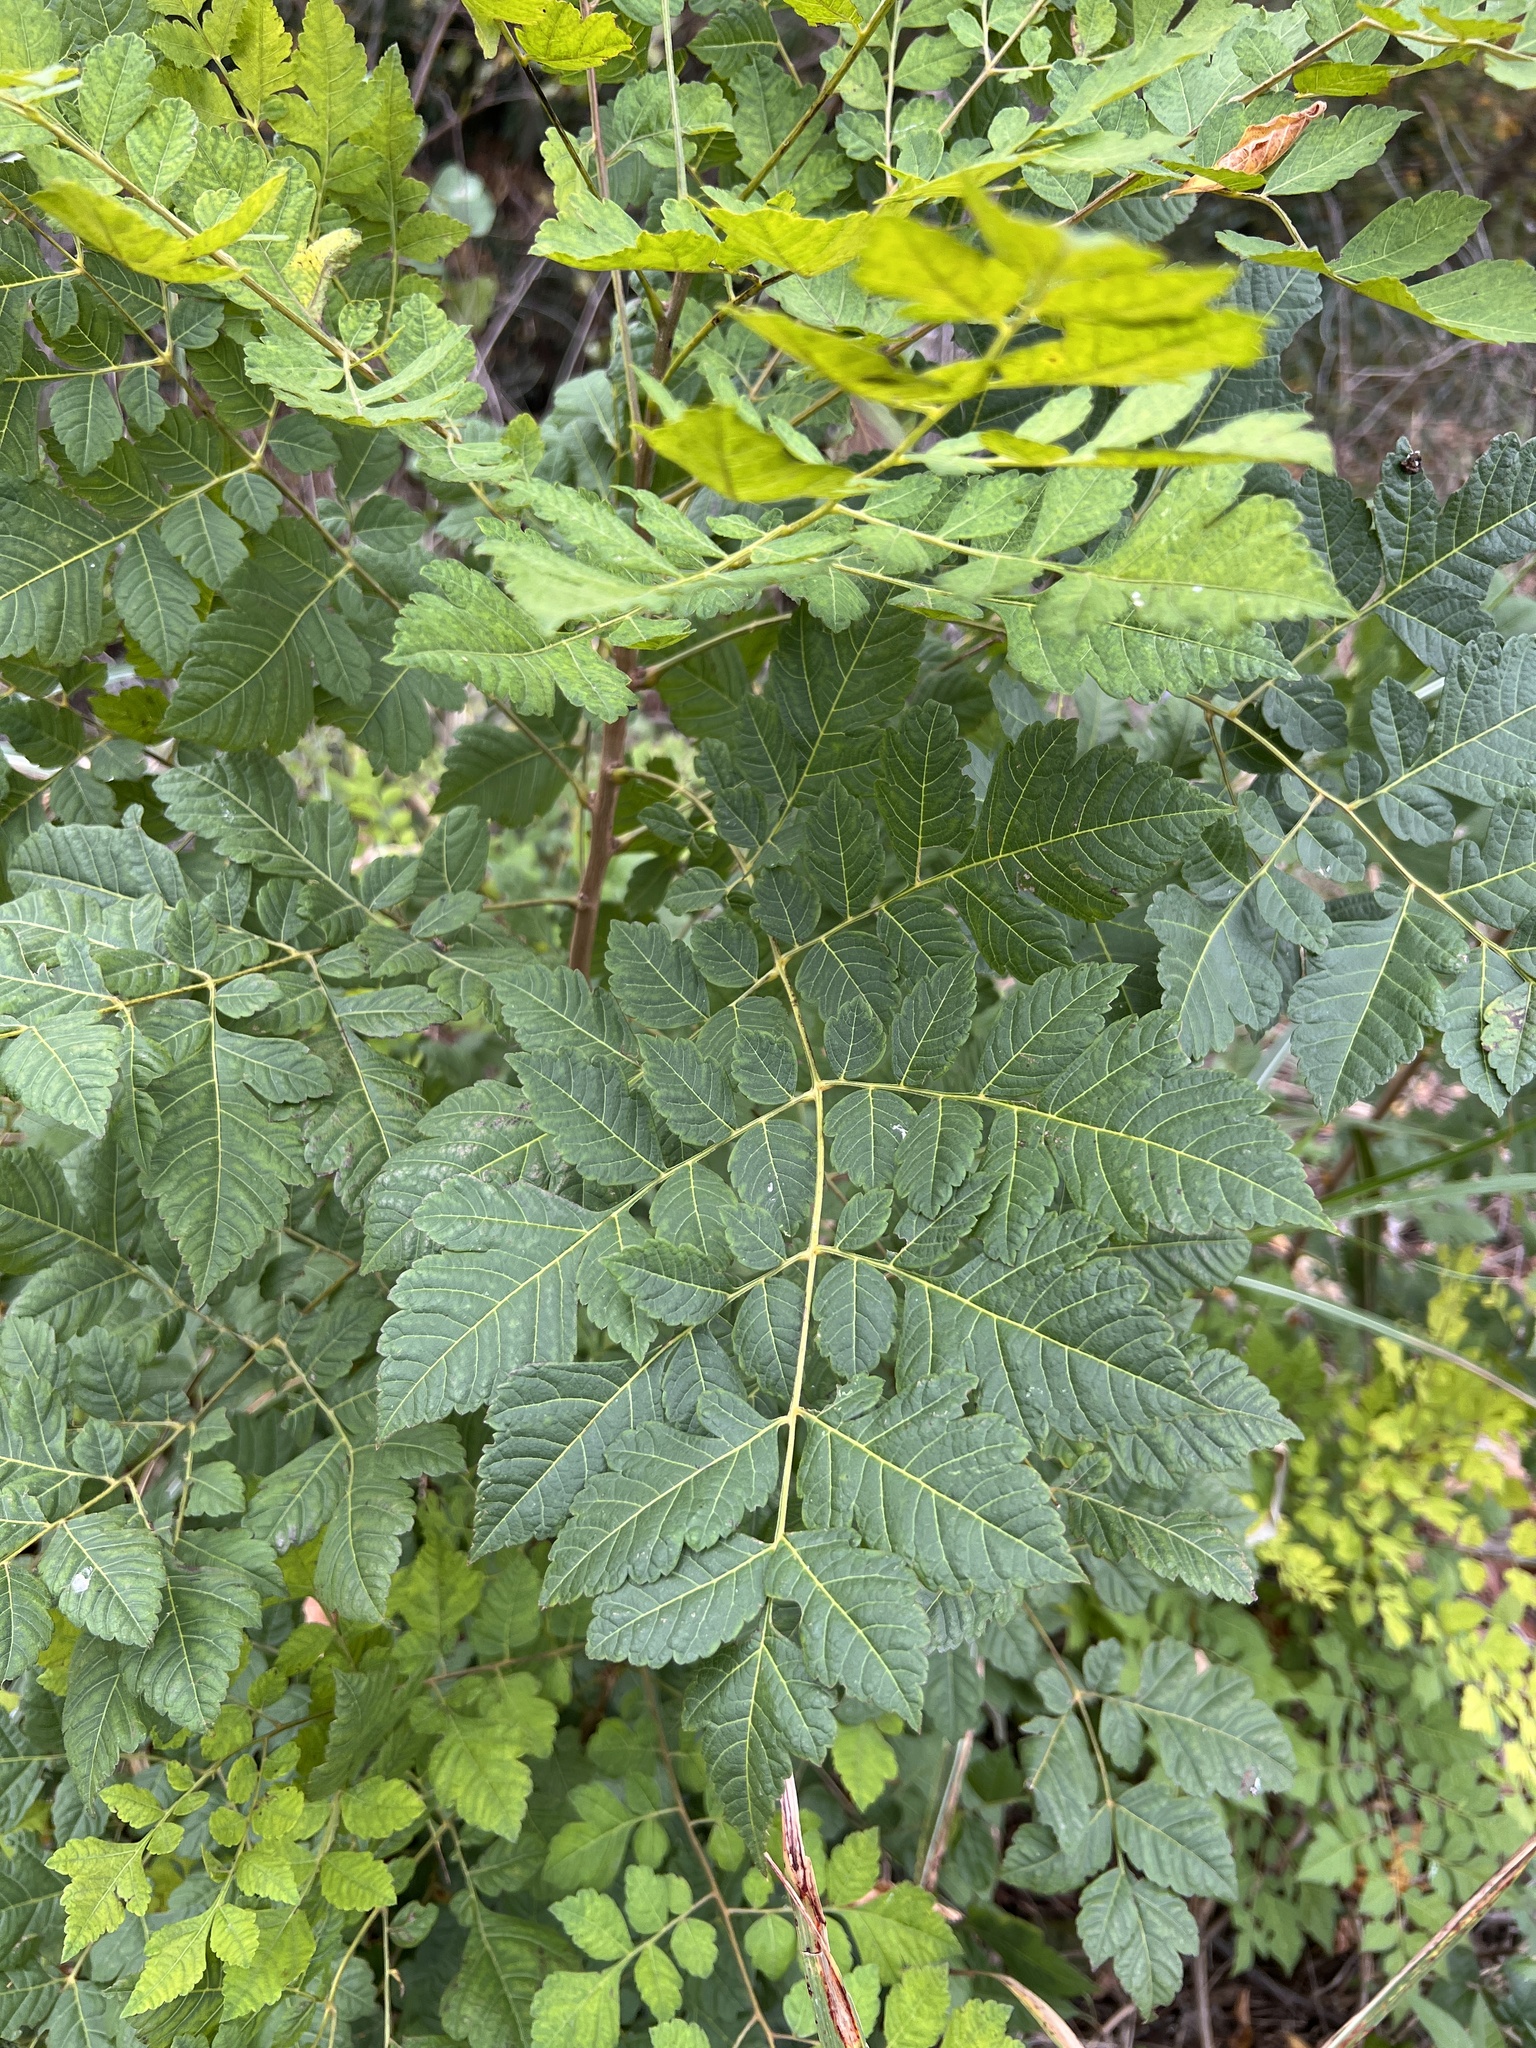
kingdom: Plantae
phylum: Tracheophyta
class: Magnoliopsida
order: Sapindales
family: Sapindaceae
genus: Koelreuteria
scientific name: Koelreuteria paniculata
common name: Pride-of-india
